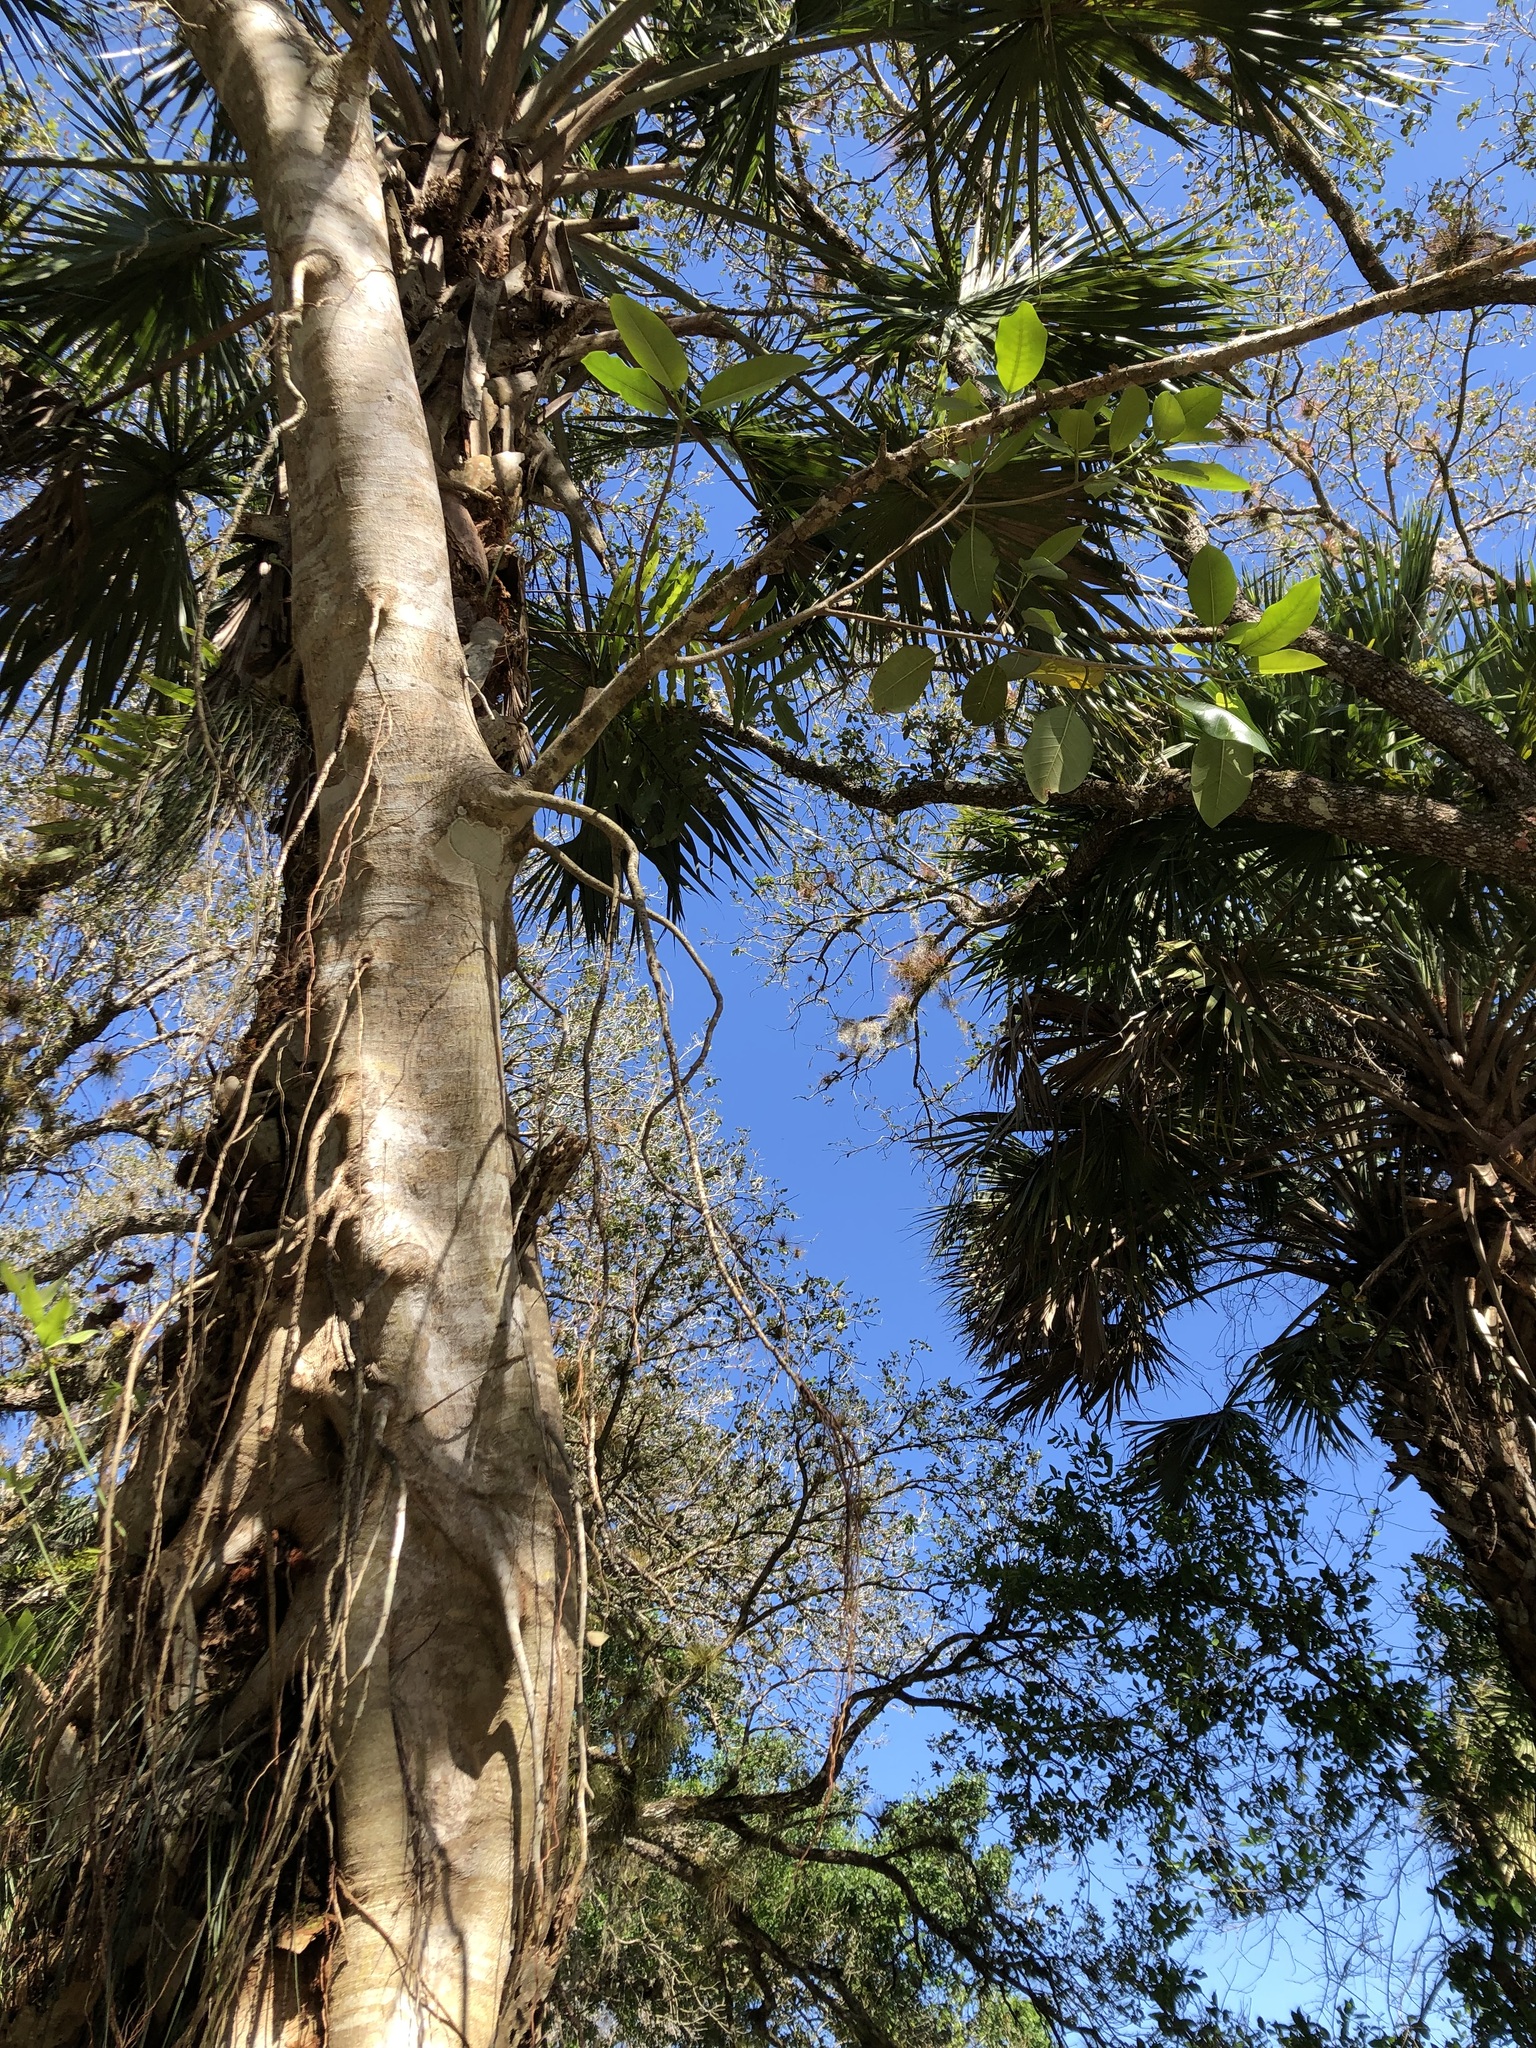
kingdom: Plantae
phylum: Tracheophyta
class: Magnoliopsida
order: Rosales
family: Moraceae
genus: Ficus
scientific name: Ficus aurea
